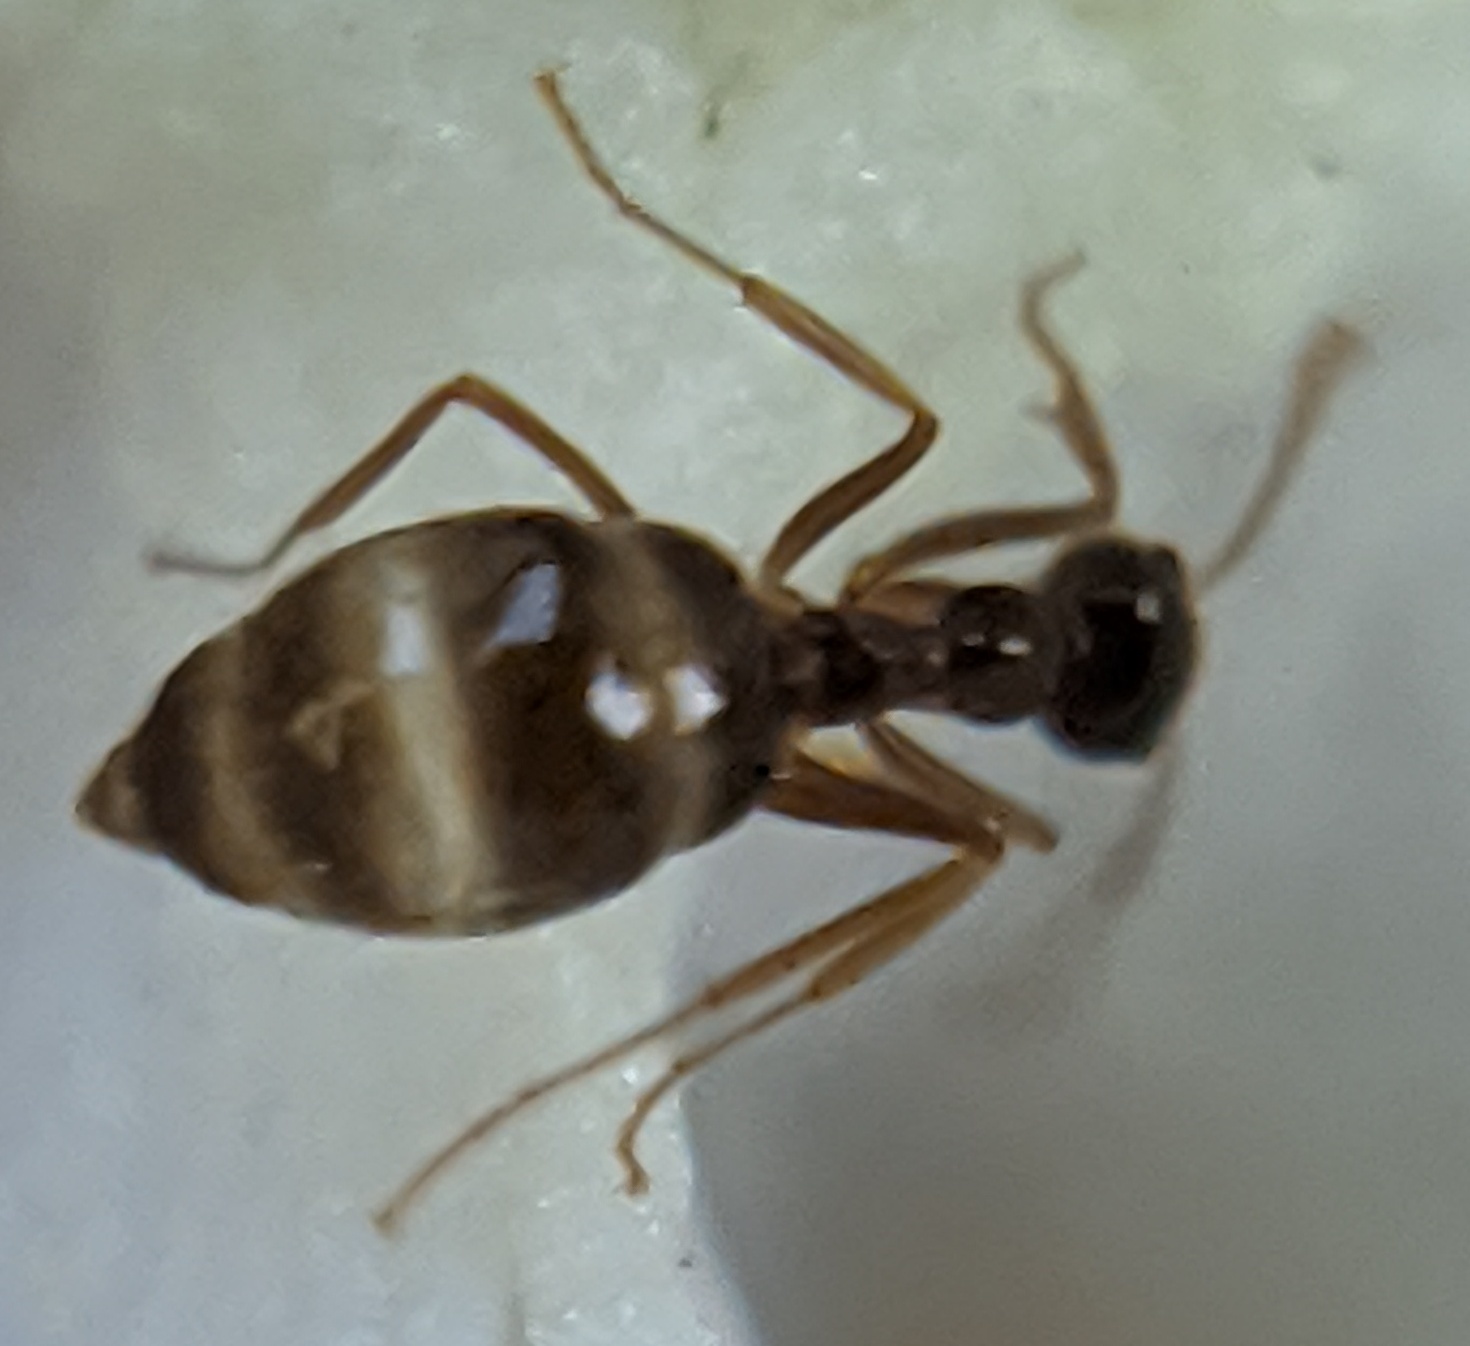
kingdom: Animalia
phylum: Arthropoda
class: Insecta
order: Hymenoptera
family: Formicidae
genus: Prenolepis
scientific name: Prenolepis imparis
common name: Small honey ant
